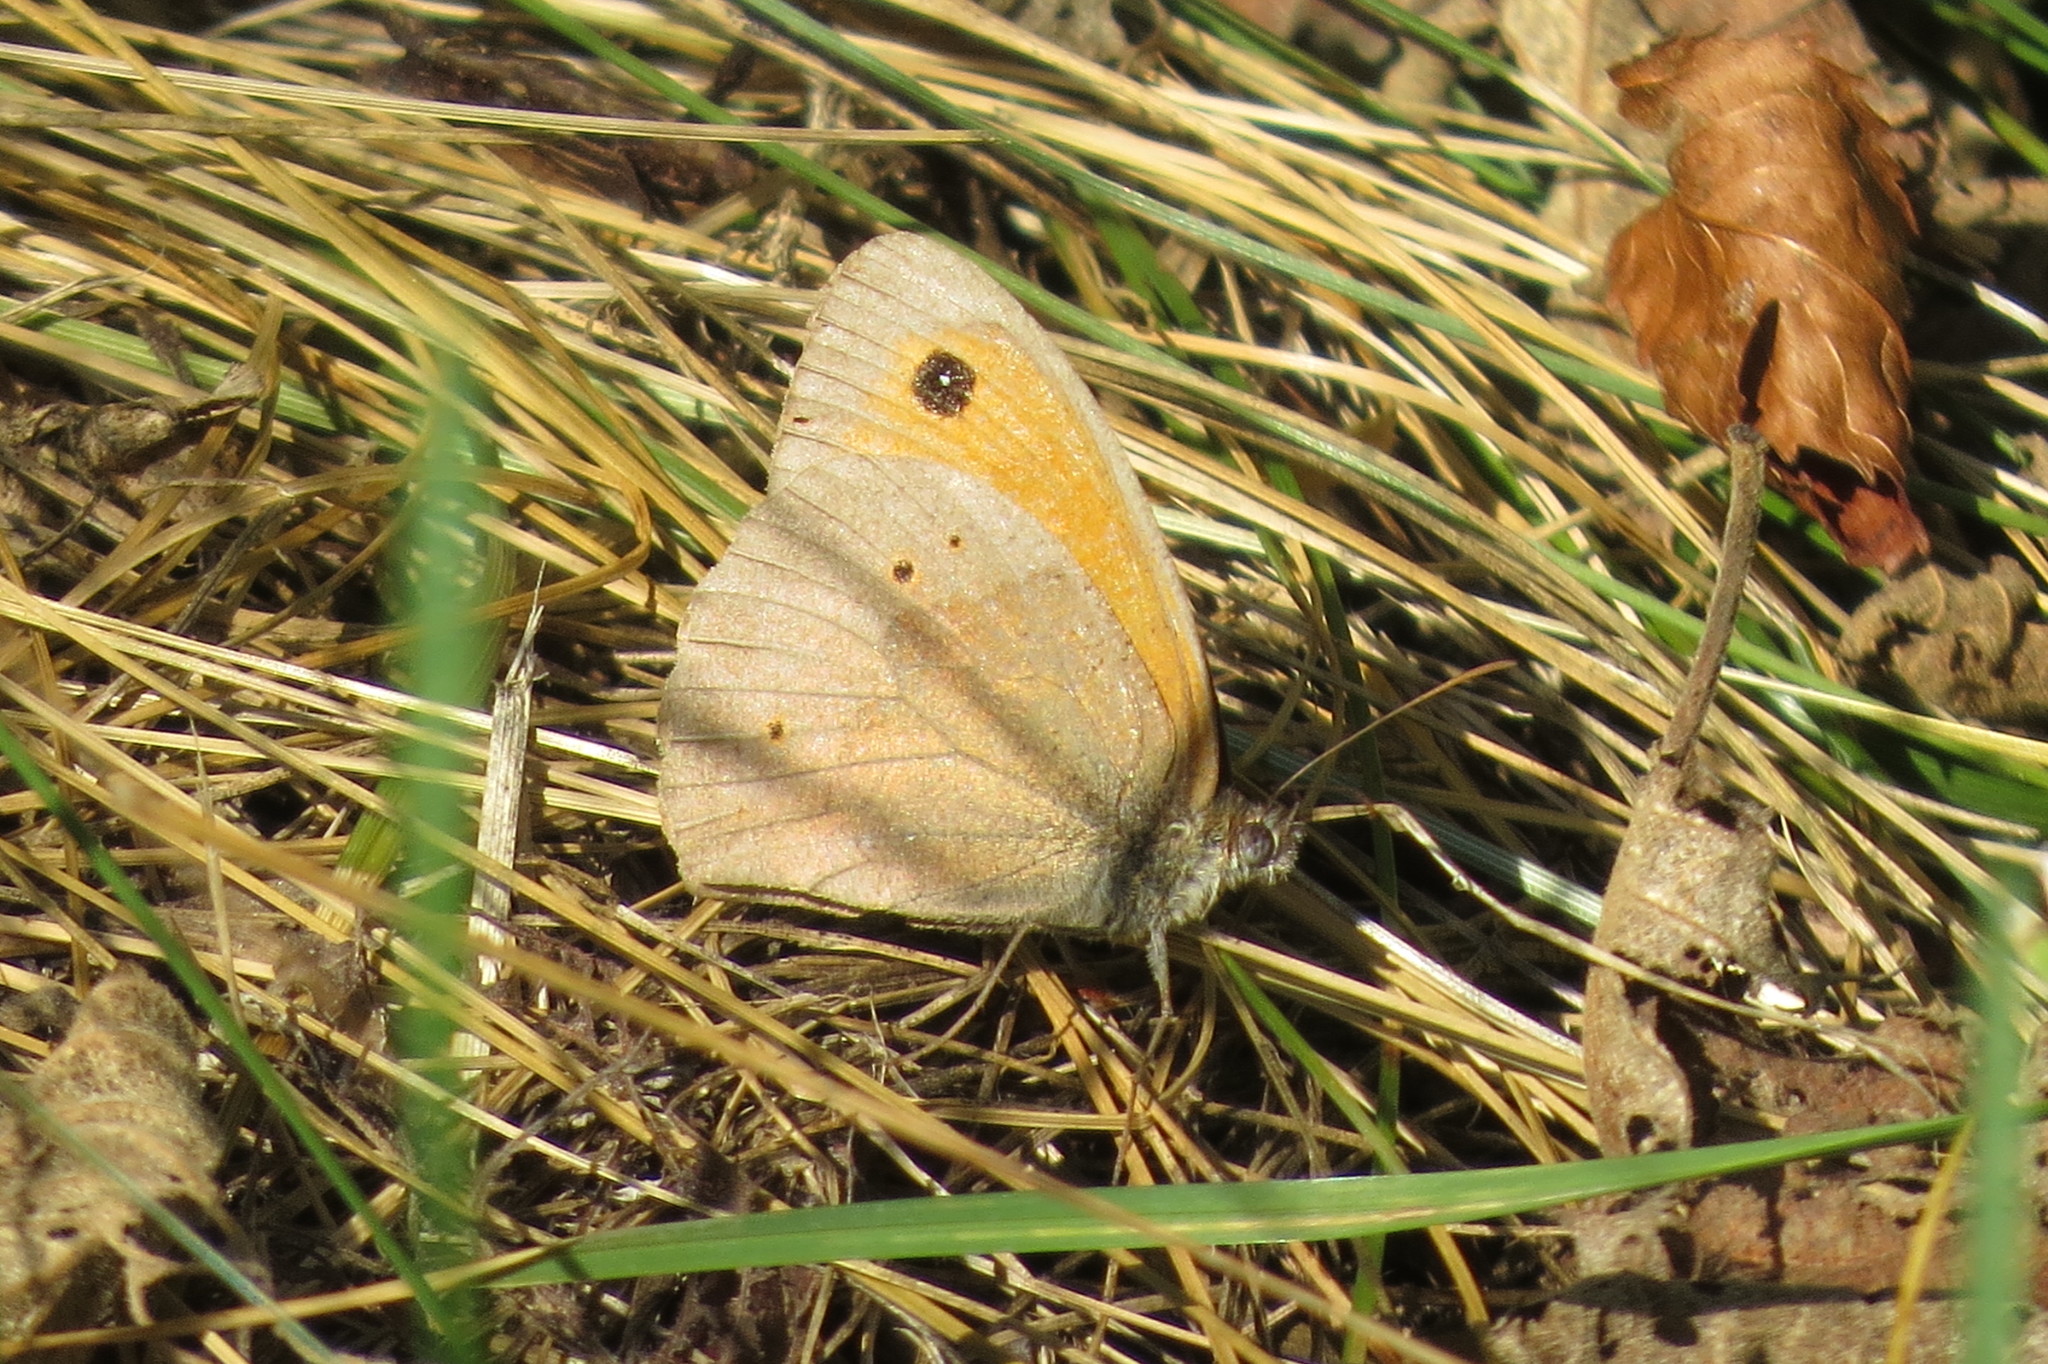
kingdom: Animalia
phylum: Arthropoda
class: Insecta
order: Lepidoptera
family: Nymphalidae
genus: Maniola
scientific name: Maniola jurtina
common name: Meadow brown
